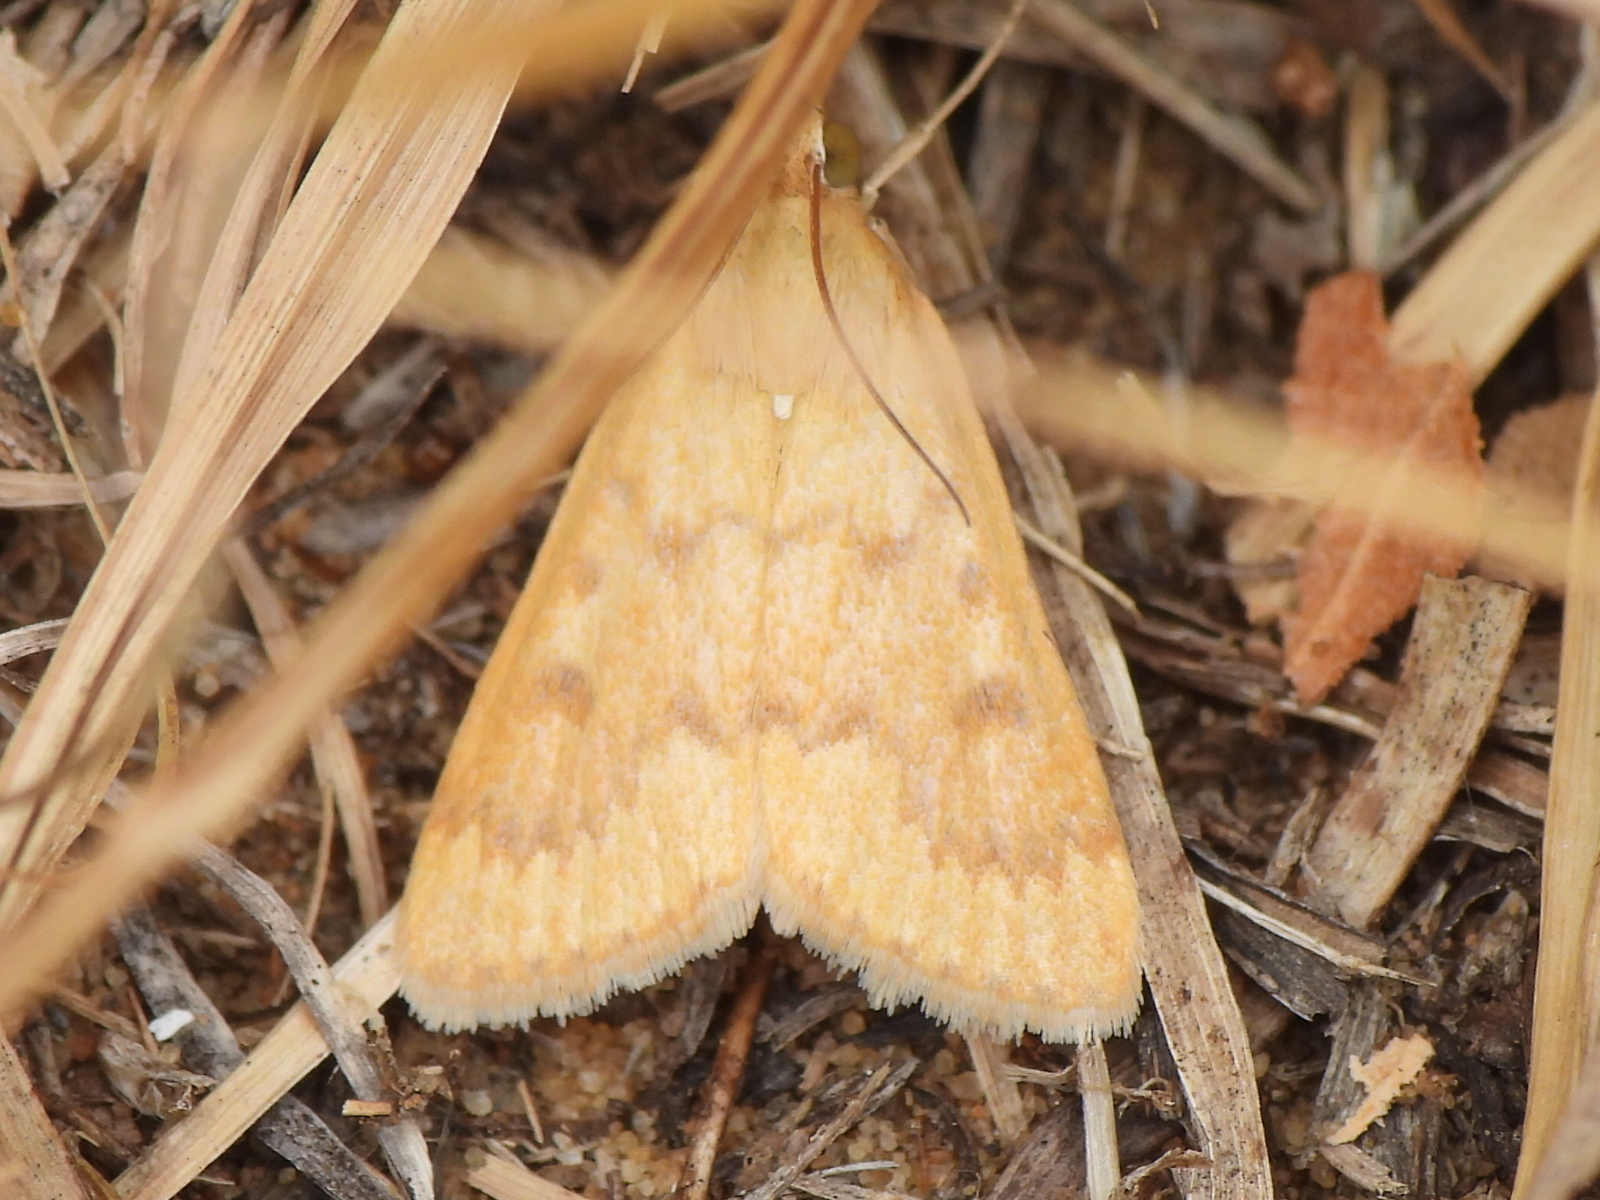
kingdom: Animalia
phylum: Arthropoda
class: Insecta
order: Lepidoptera
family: Crambidae
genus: Achyra
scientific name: Achyra rantalis
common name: Garden webworm
